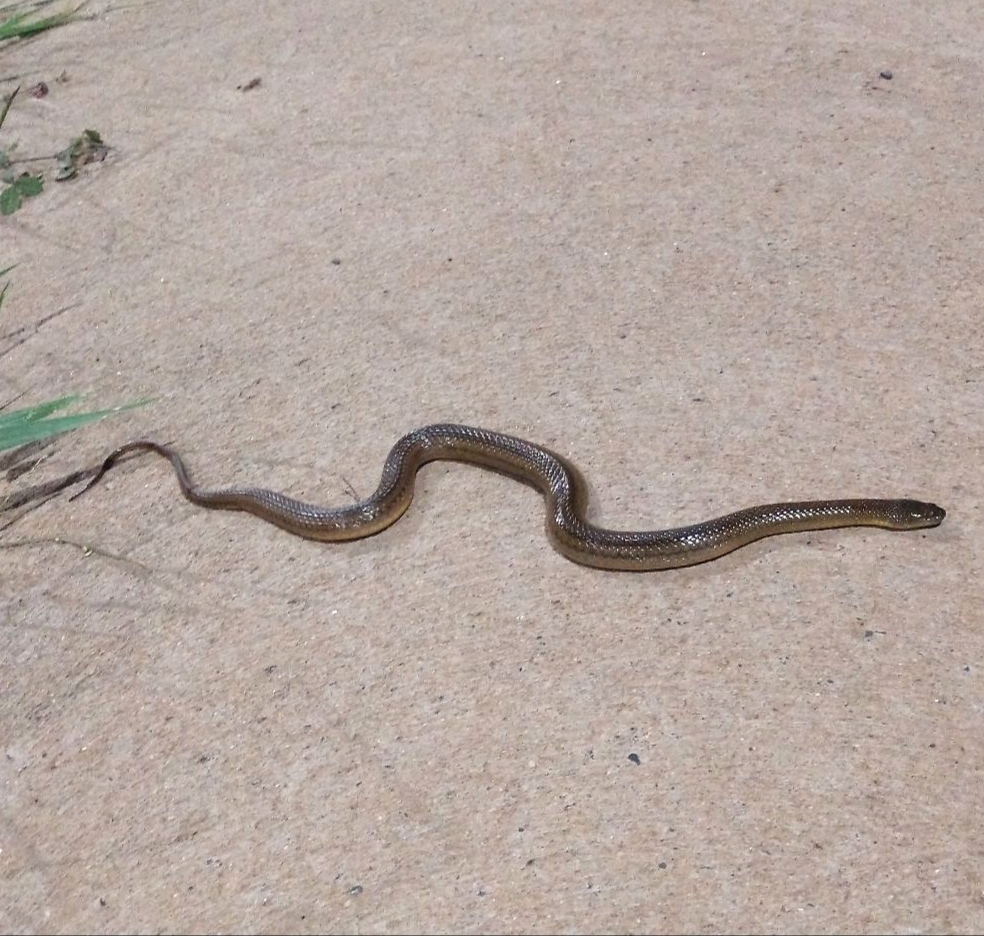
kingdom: Animalia
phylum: Chordata
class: Squamata
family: Colubridae
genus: Helicops
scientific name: Helicops modestus
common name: Olive keelback
